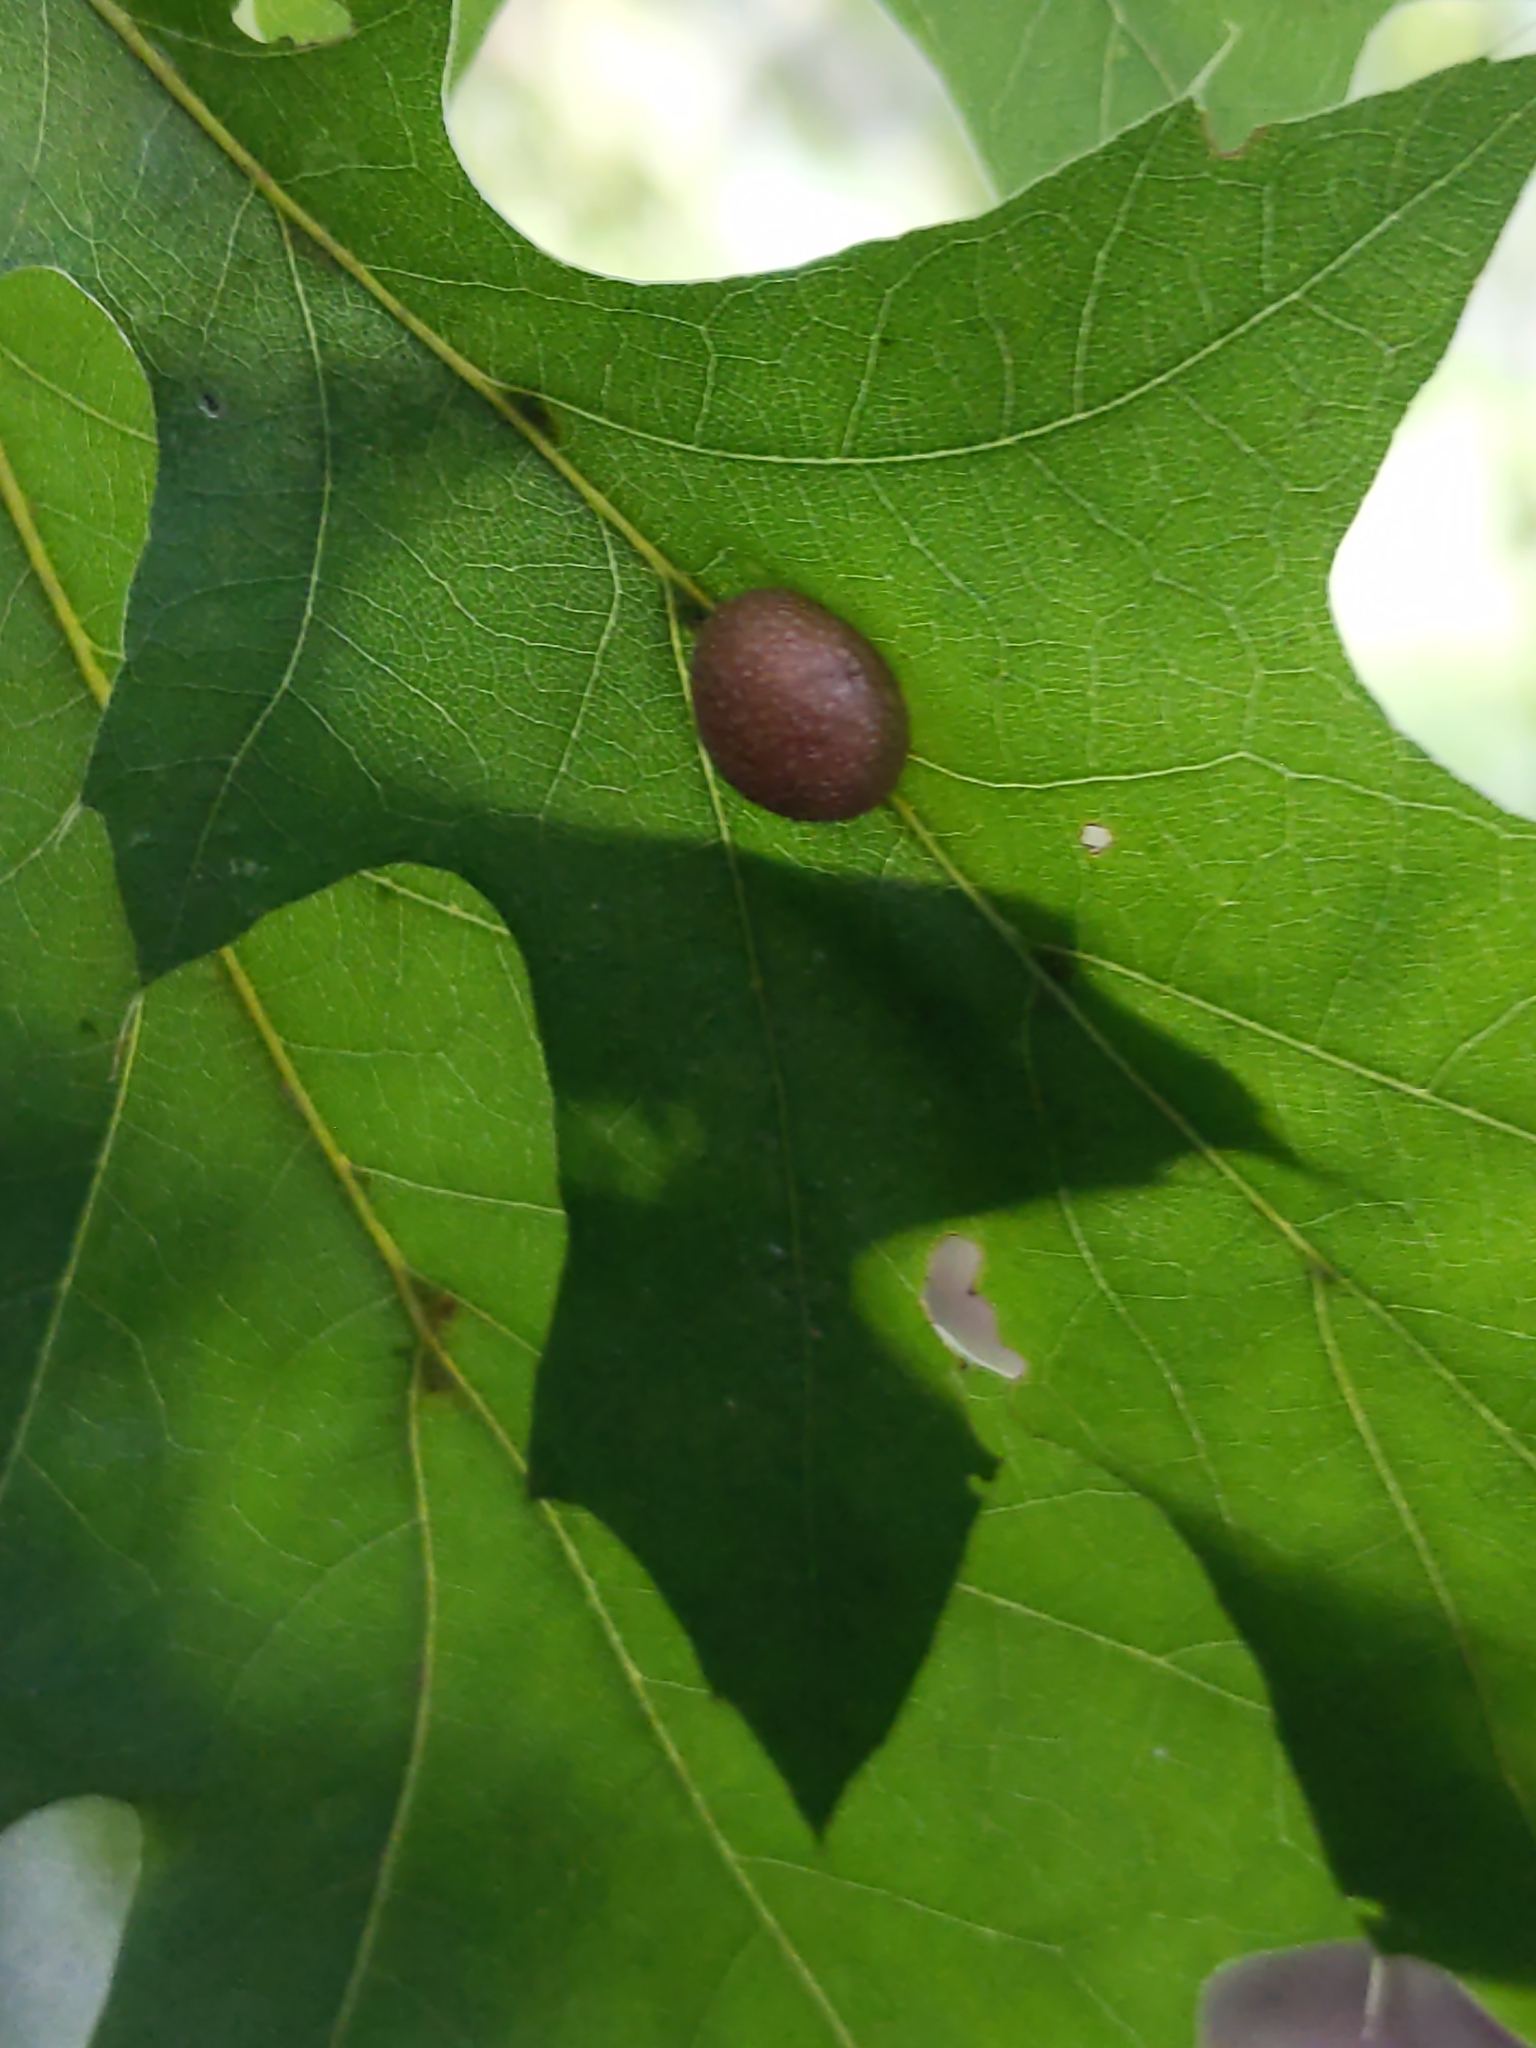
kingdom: Animalia
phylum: Arthropoda
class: Insecta
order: Diptera
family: Cecidomyiidae
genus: Polystepha
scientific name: Polystepha pilulae
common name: Oak leaf gall midge
